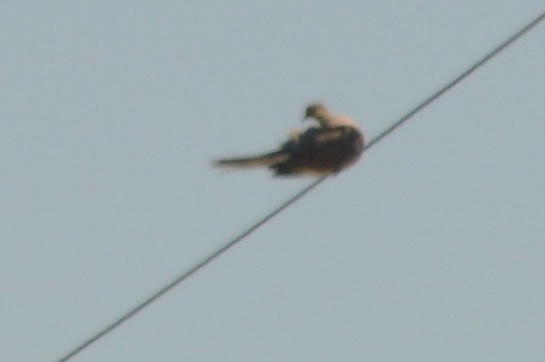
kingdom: Animalia
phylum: Chordata
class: Aves
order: Columbiformes
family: Columbidae
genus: Zenaida
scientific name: Zenaida macroura
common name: Mourning dove
